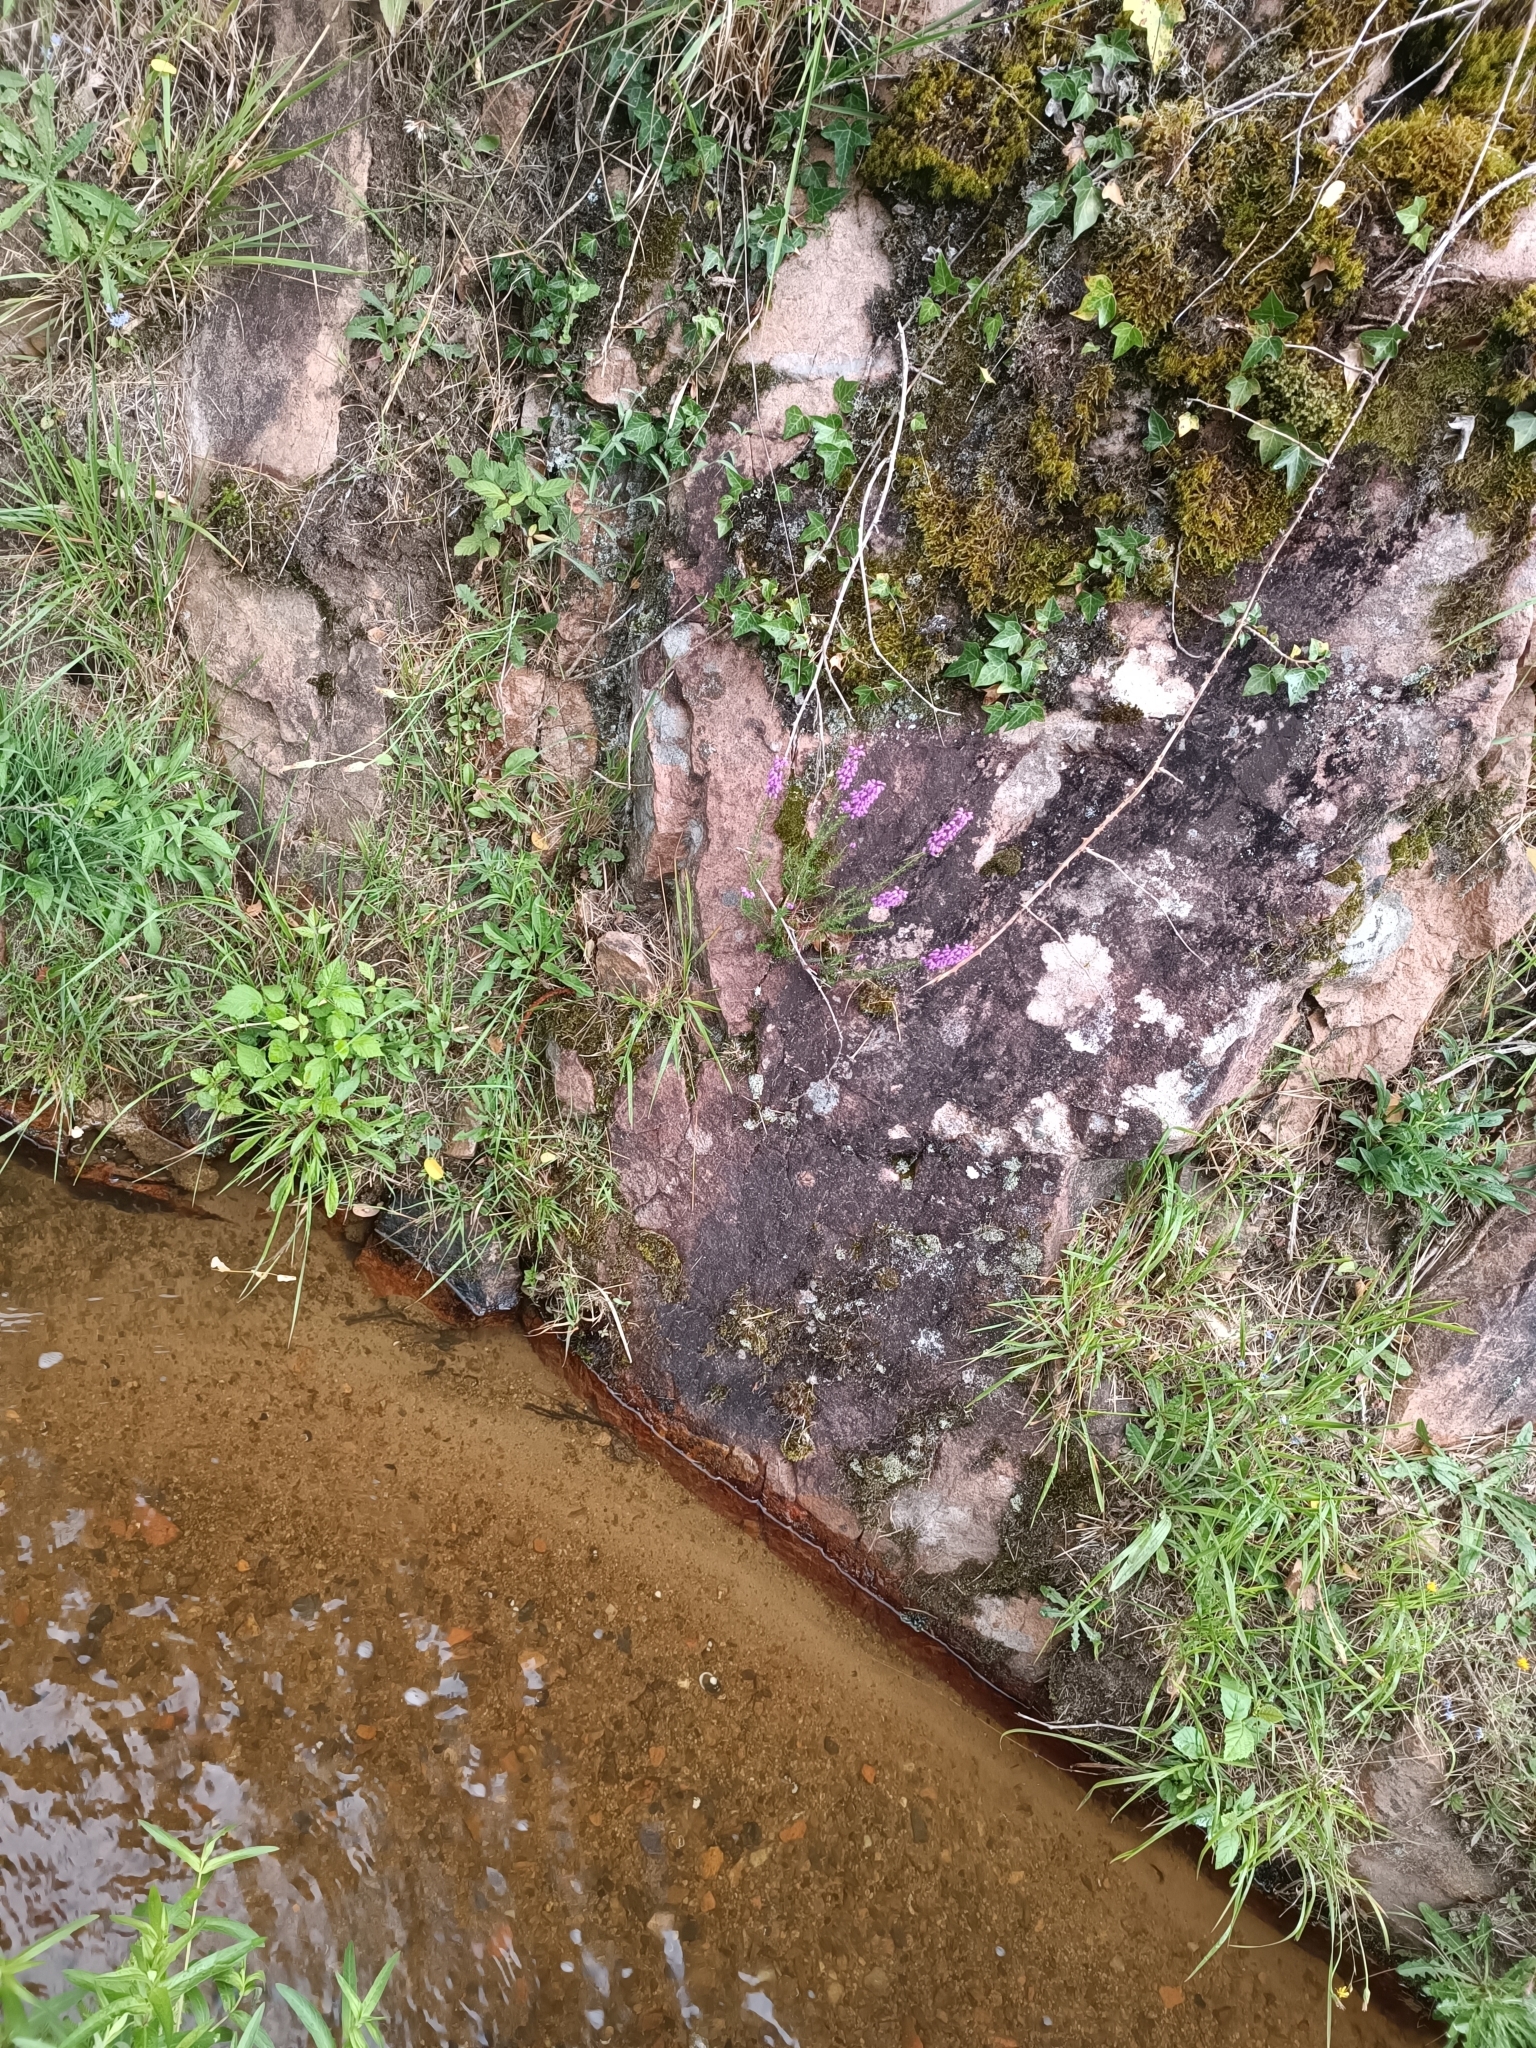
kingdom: Plantae
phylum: Tracheophyta
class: Magnoliopsida
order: Ericales
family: Ericaceae
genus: Erica
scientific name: Erica cinerea
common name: Bell heather
